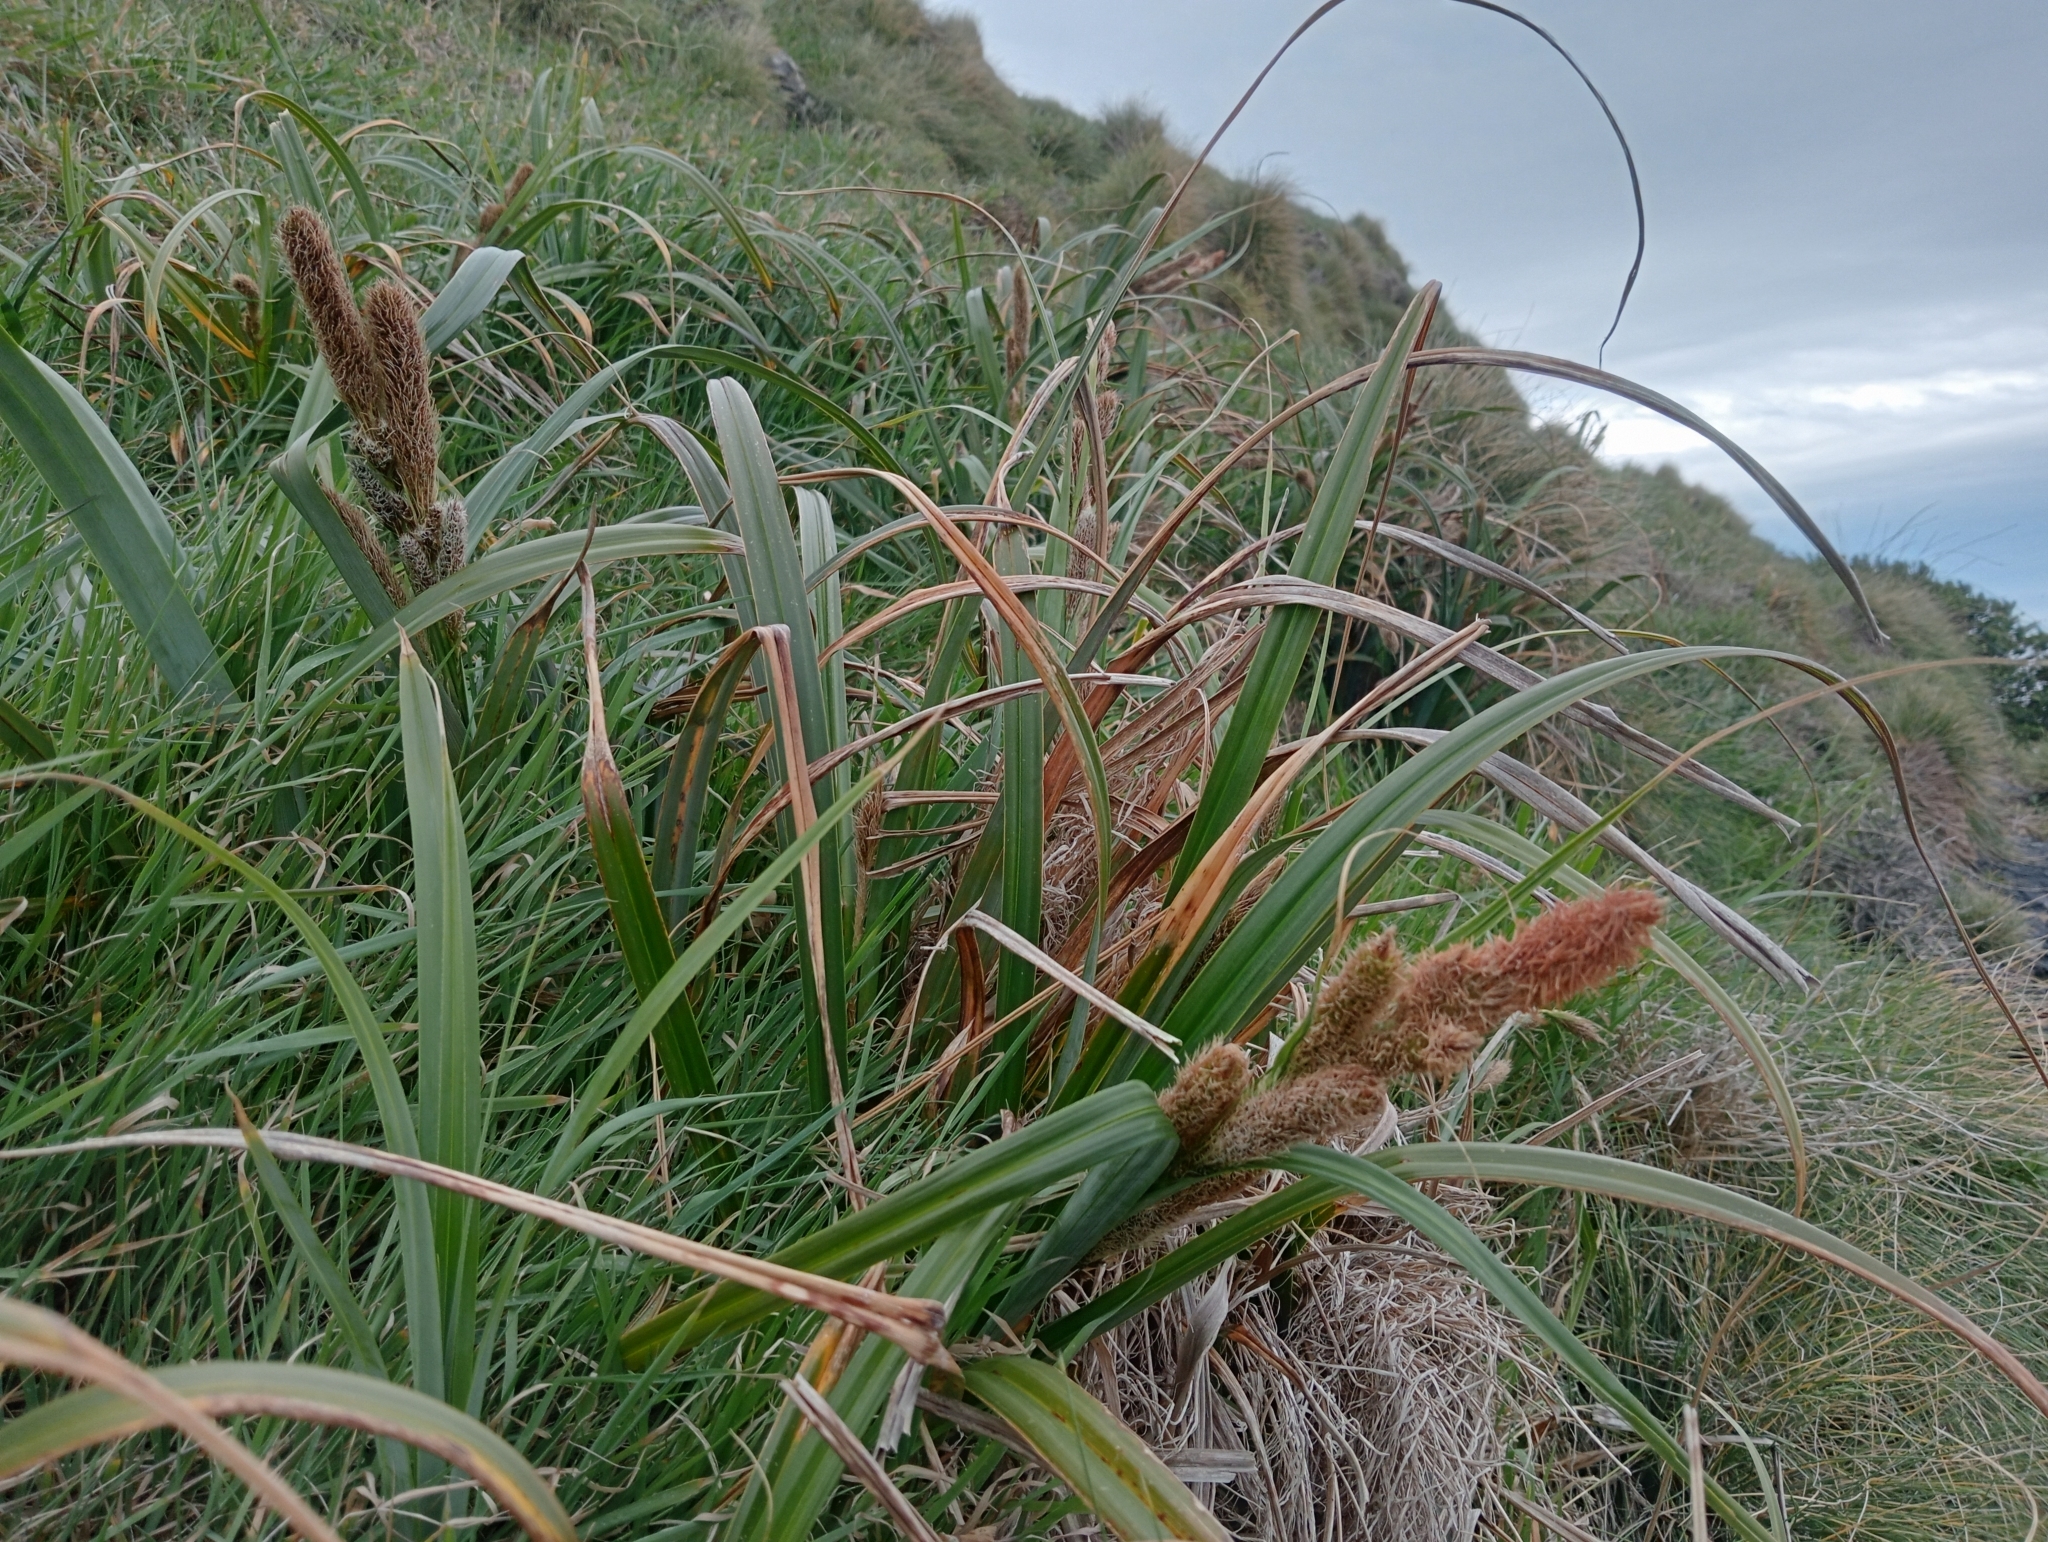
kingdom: Plantae
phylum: Tracheophyta
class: Liliopsida
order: Poales
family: Cyperaceae
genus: Carex
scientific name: Carex trifida
